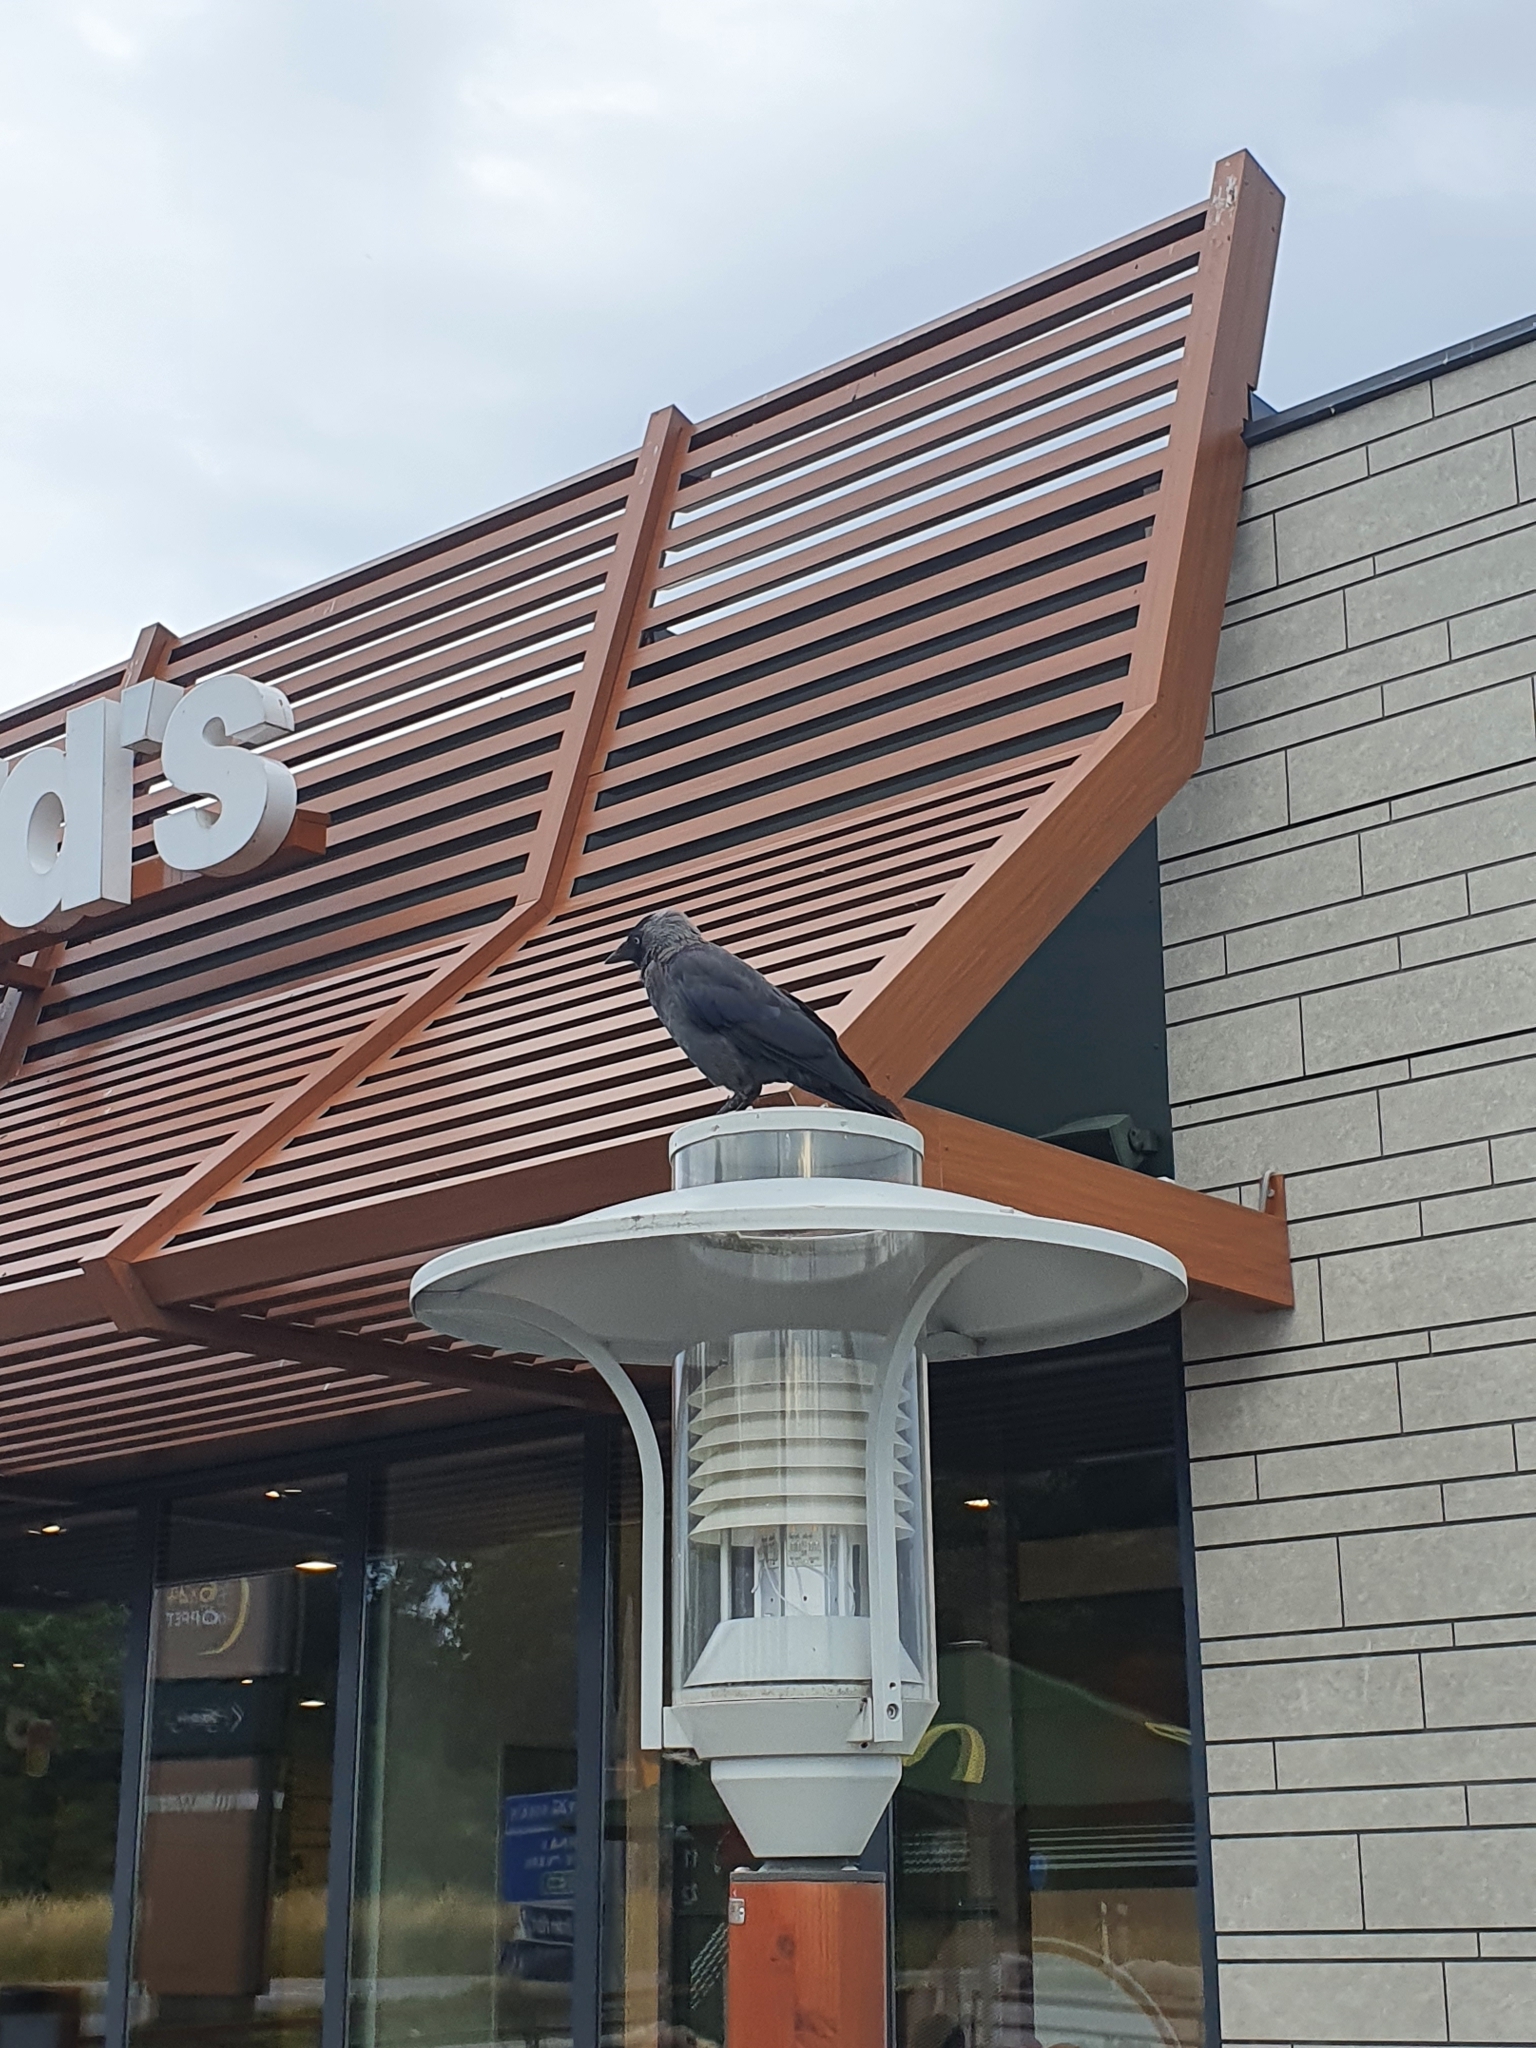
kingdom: Animalia
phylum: Chordata
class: Aves
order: Passeriformes
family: Corvidae
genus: Coloeus
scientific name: Coloeus monedula
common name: Western jackdaw
